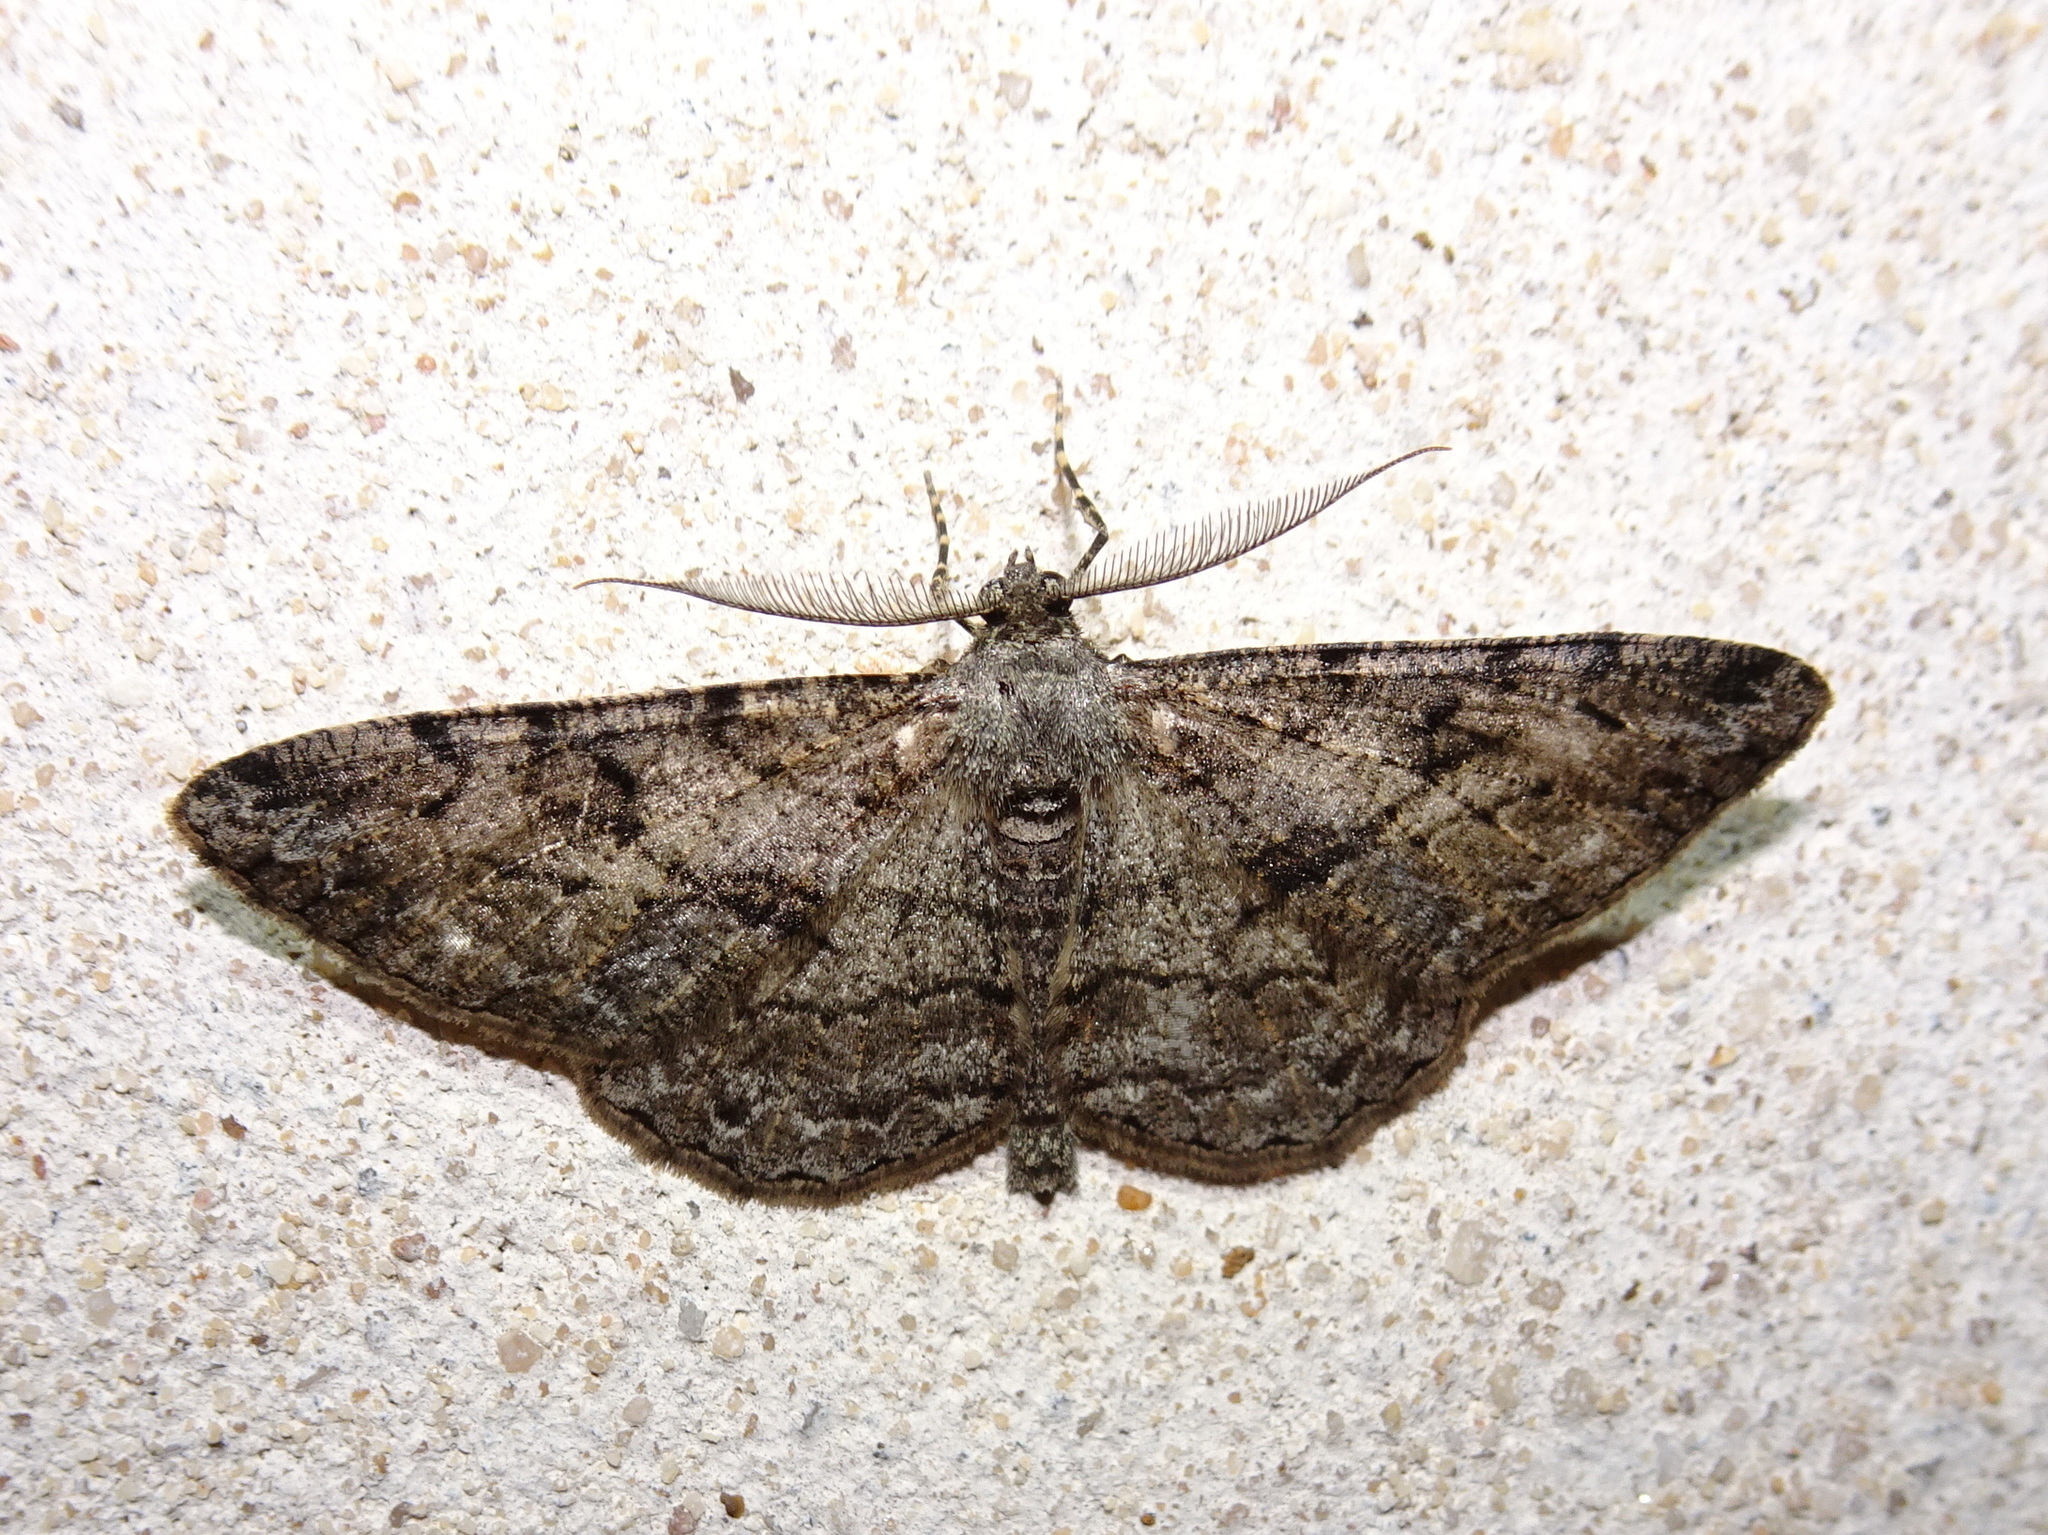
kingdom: Animalia
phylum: Arthropoda
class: Insecta
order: Lepidoptera
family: Geometridae
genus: Peribatodes
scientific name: Peribatodes rhomboidaria
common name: Willow beauty
